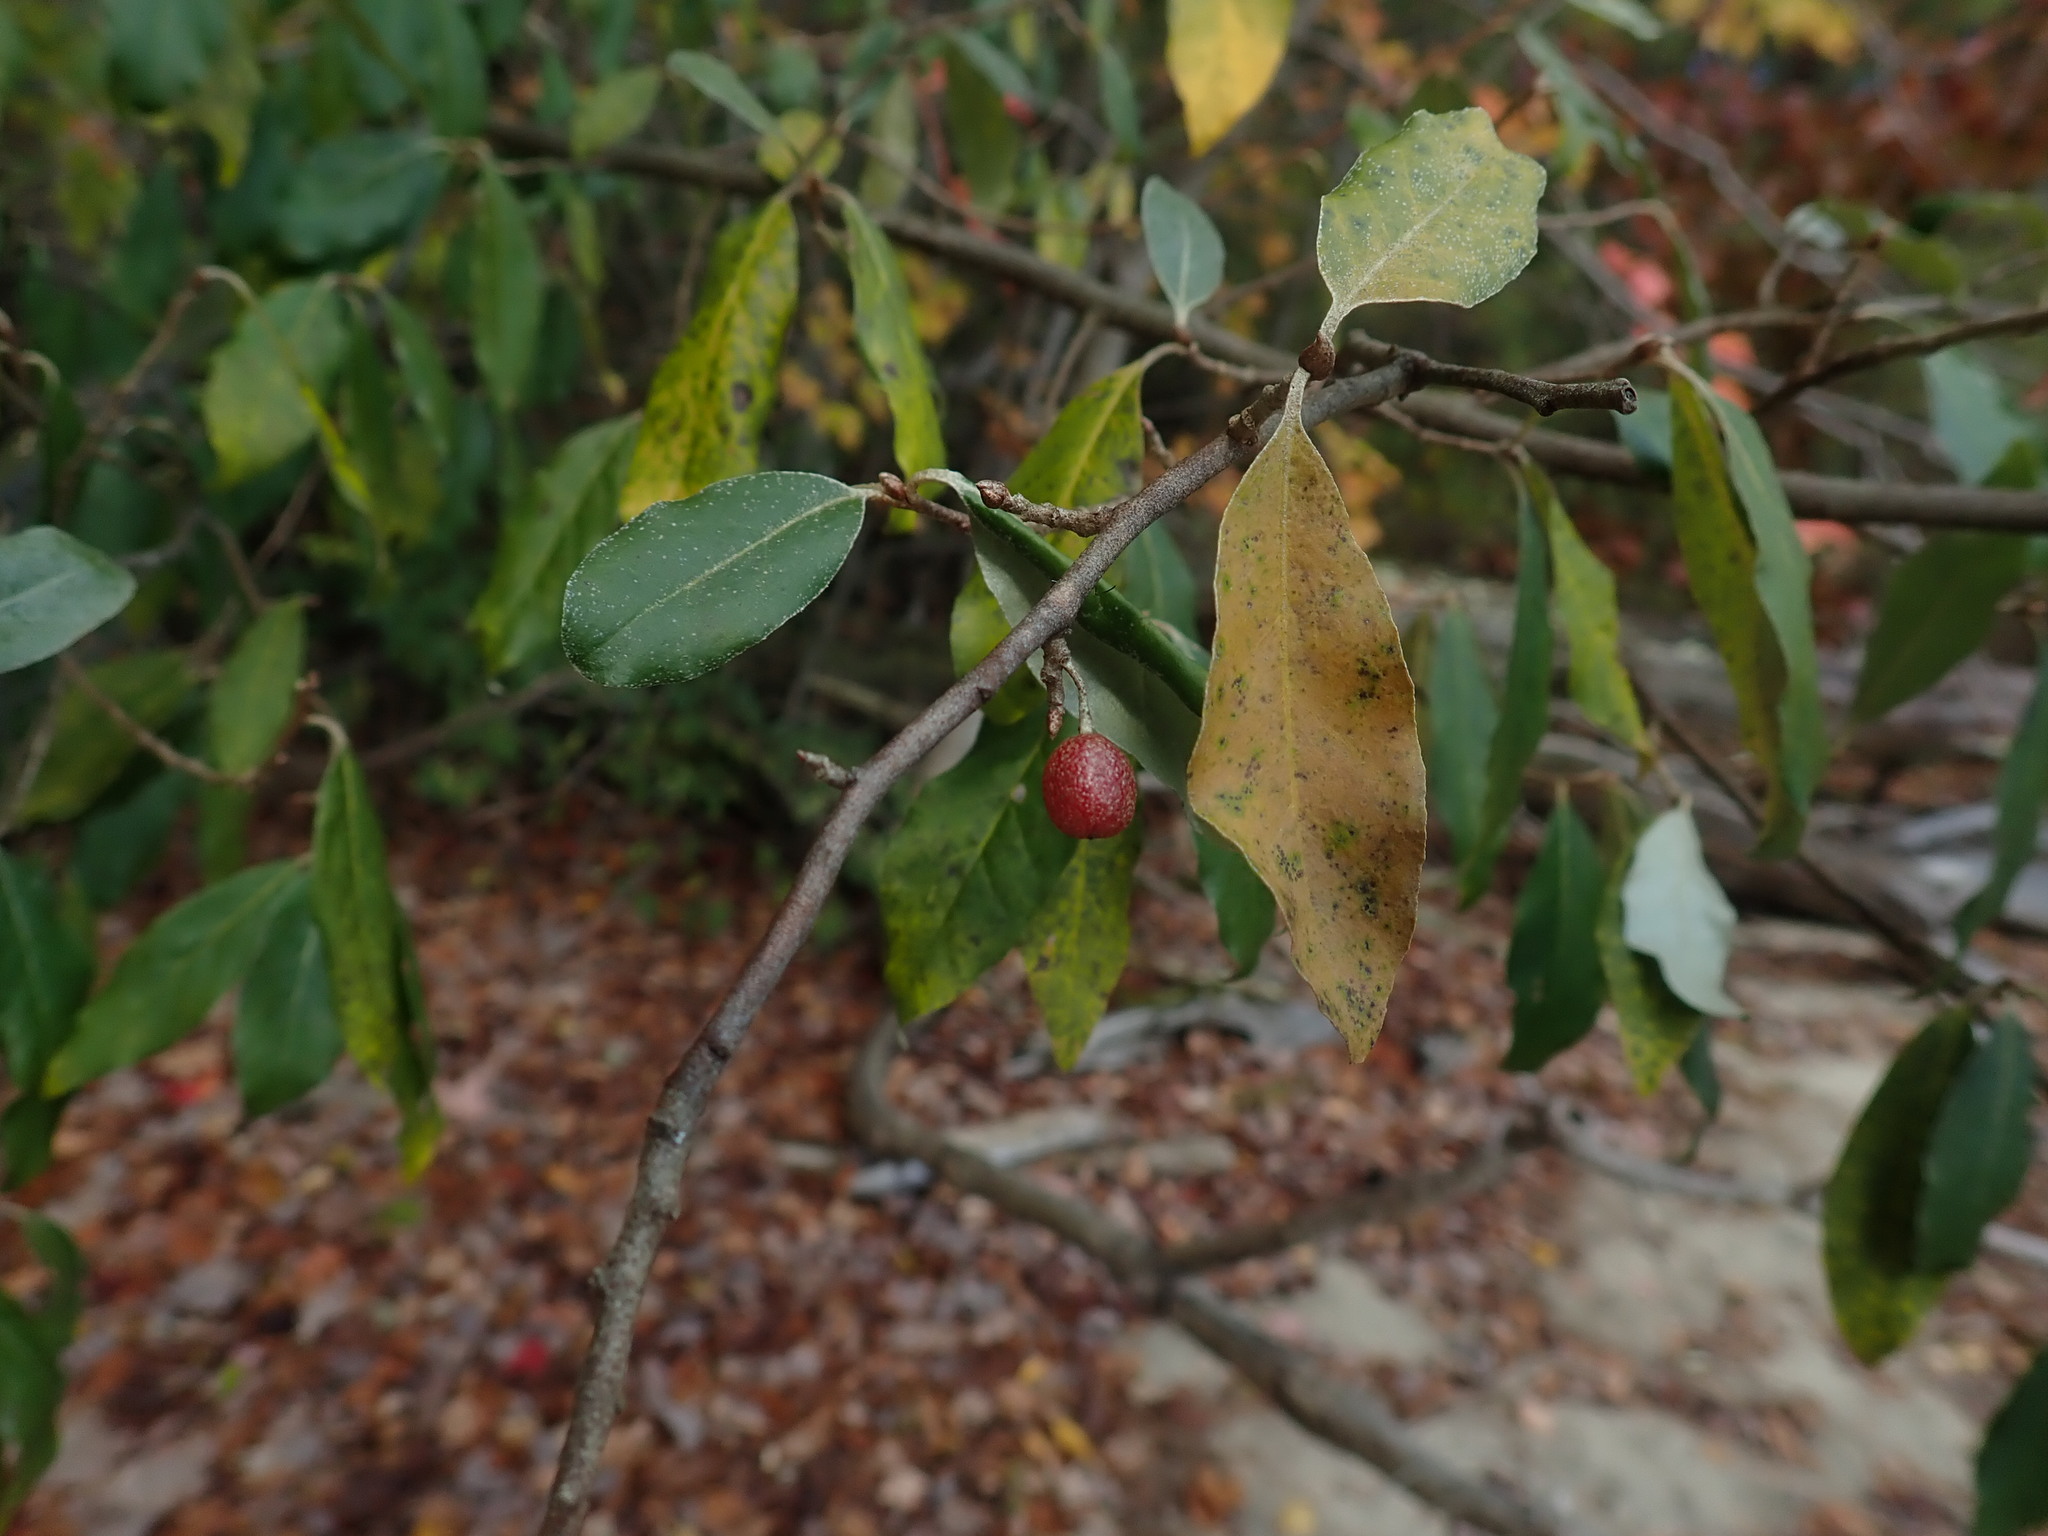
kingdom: Plantae
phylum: Tracheophyta
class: Magnoliopsida
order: Rosales
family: Elaeagnaceae
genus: Elaeagnus
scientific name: Elaeagnus umbellata
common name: Autumn olive
